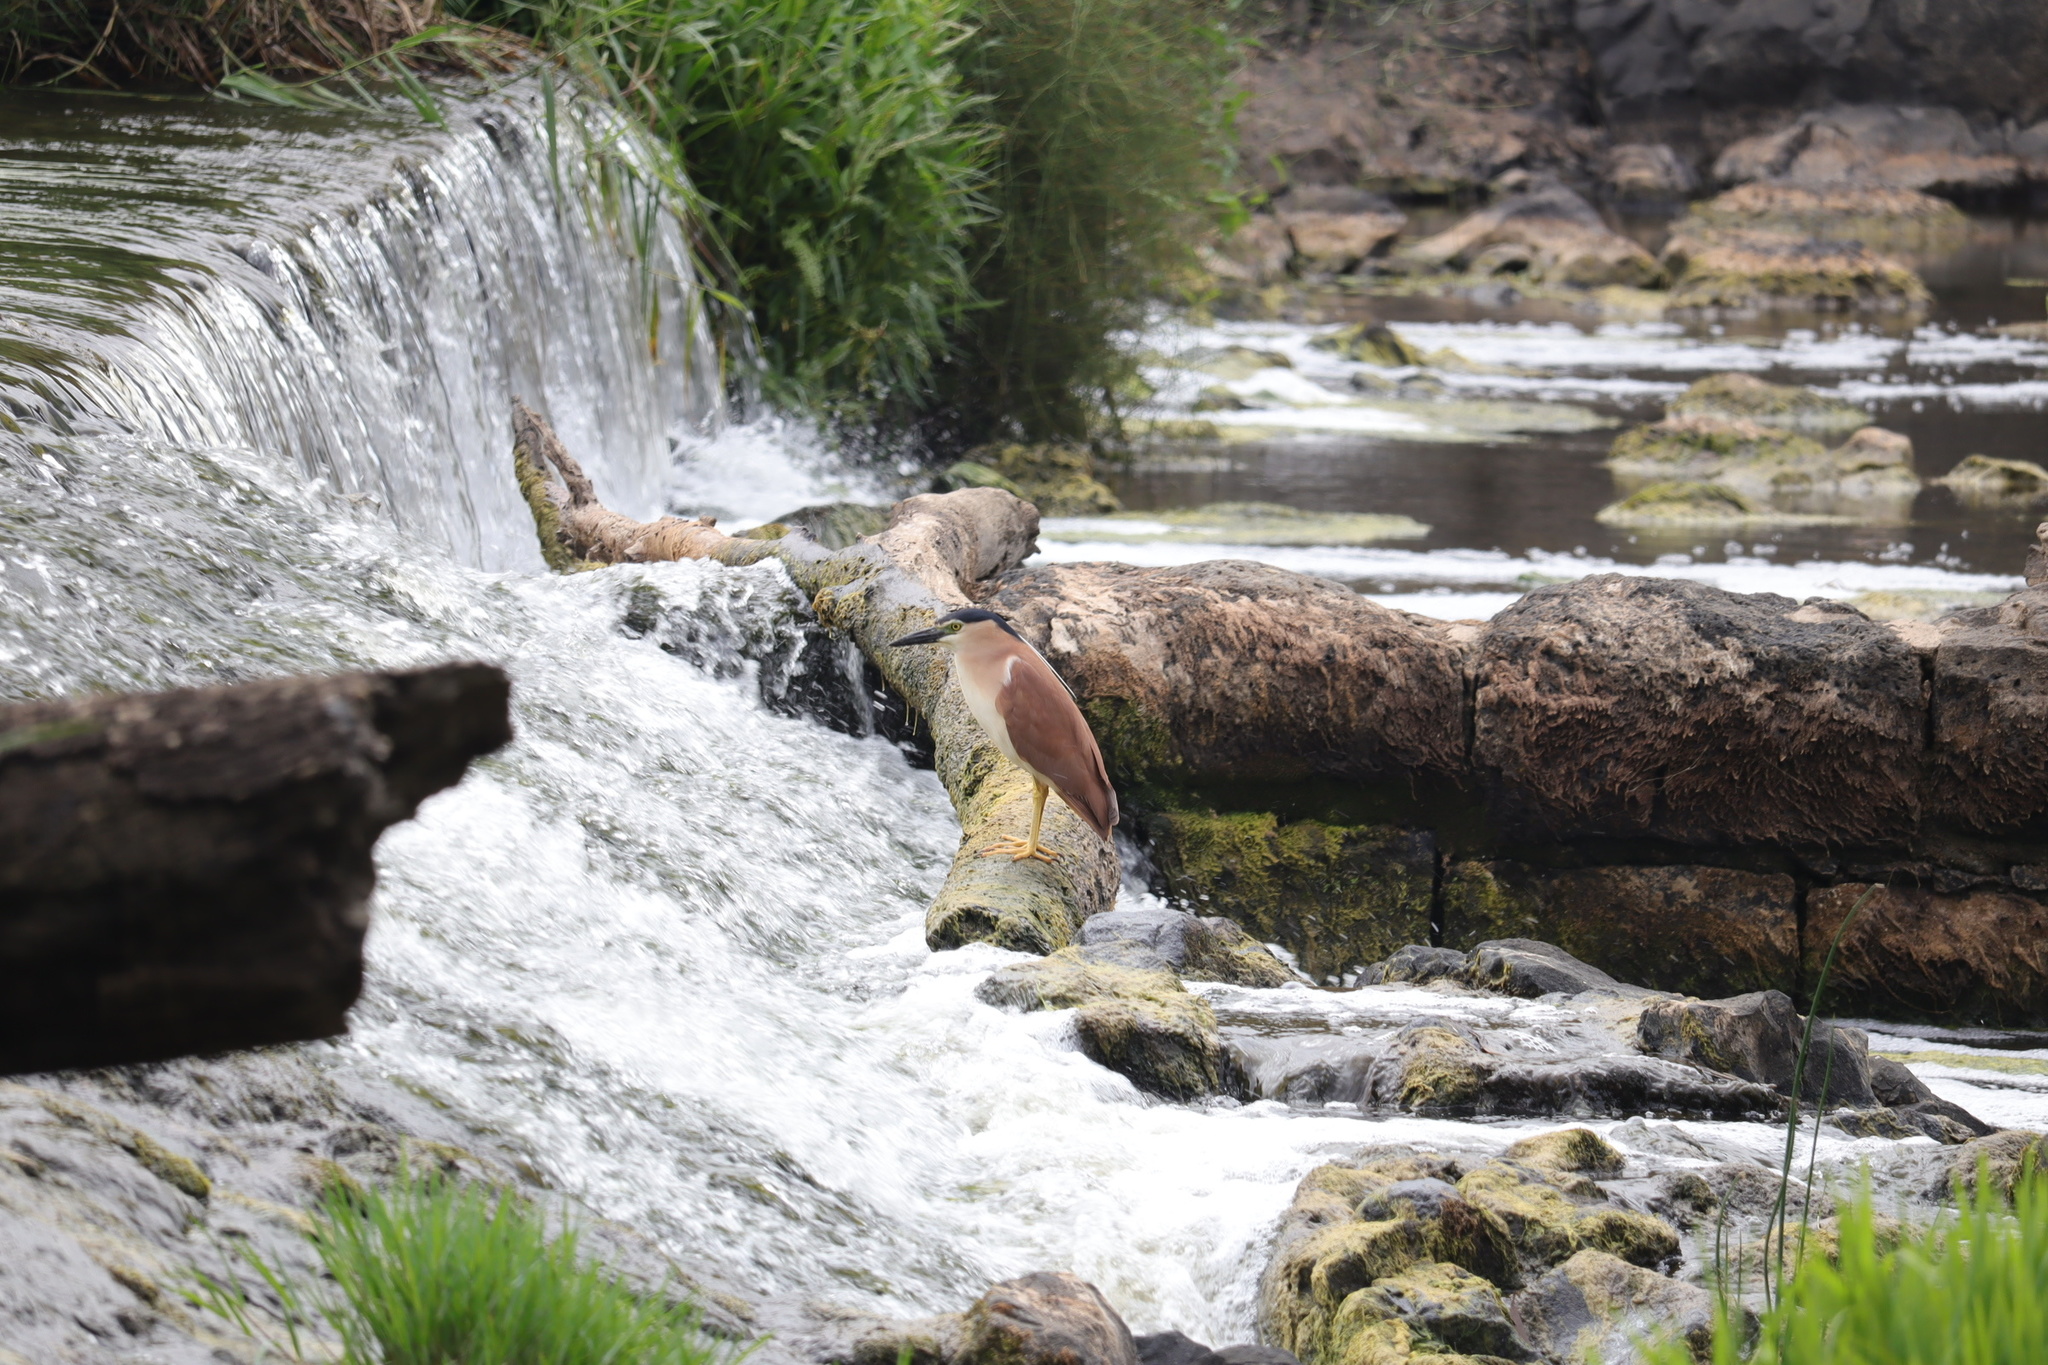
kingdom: Animalia
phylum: Chordata
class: Aves
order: Pelecaniformes
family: Ardeidae
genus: Nycticorax
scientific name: Nycticorax caledonicus
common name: Rufous night-heron
